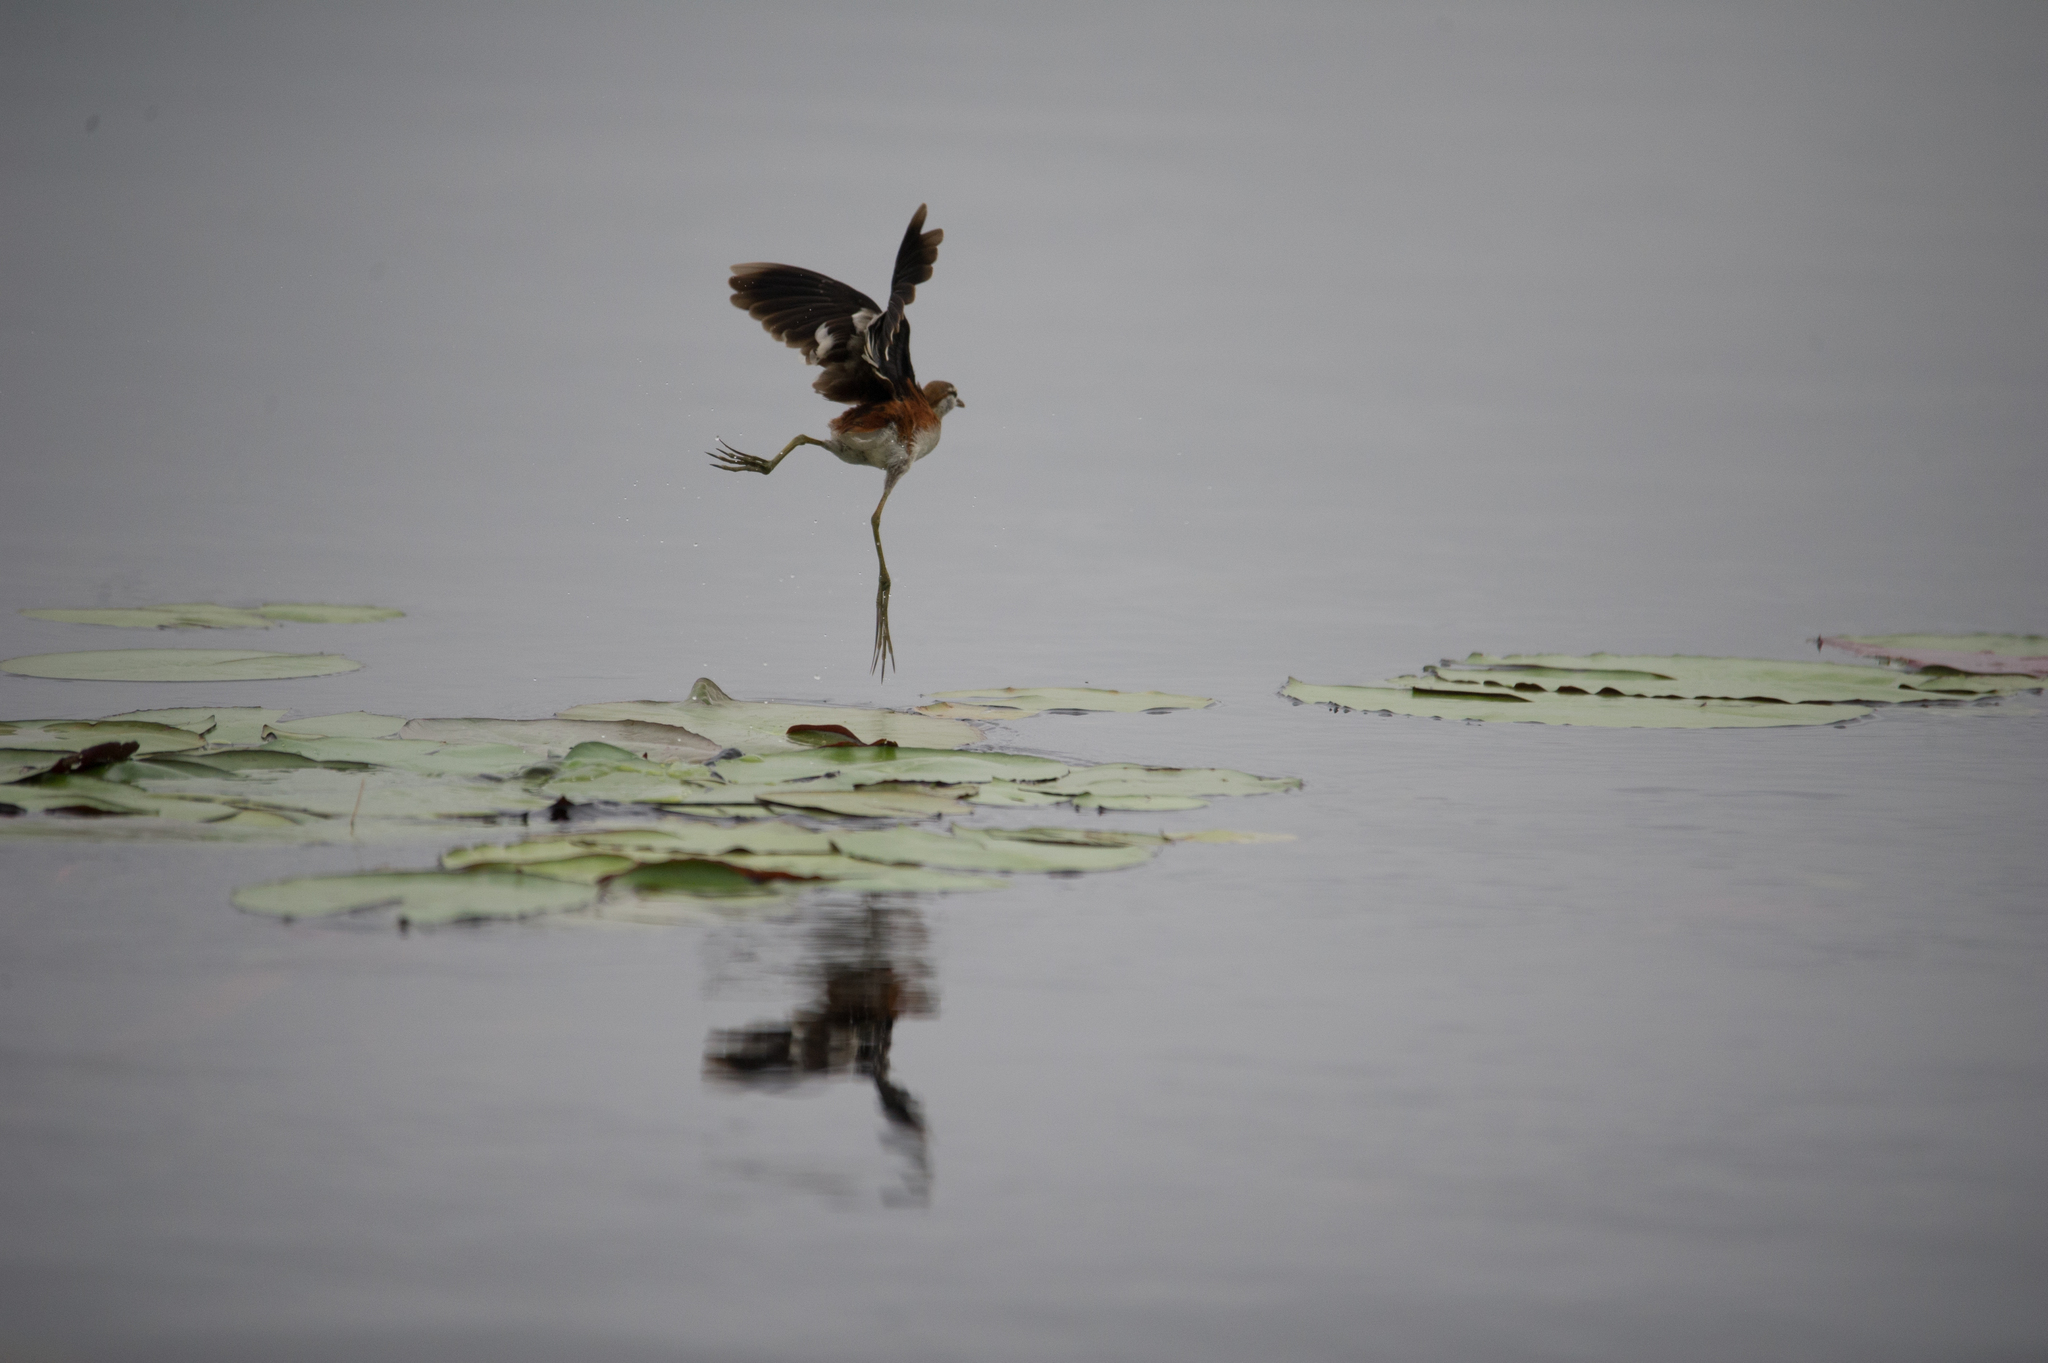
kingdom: Animalia
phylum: Chordata
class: Aves
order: Charadriiformes
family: Jacanidae
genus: Microparra
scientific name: Microparra capensis
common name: Lesser jacana
